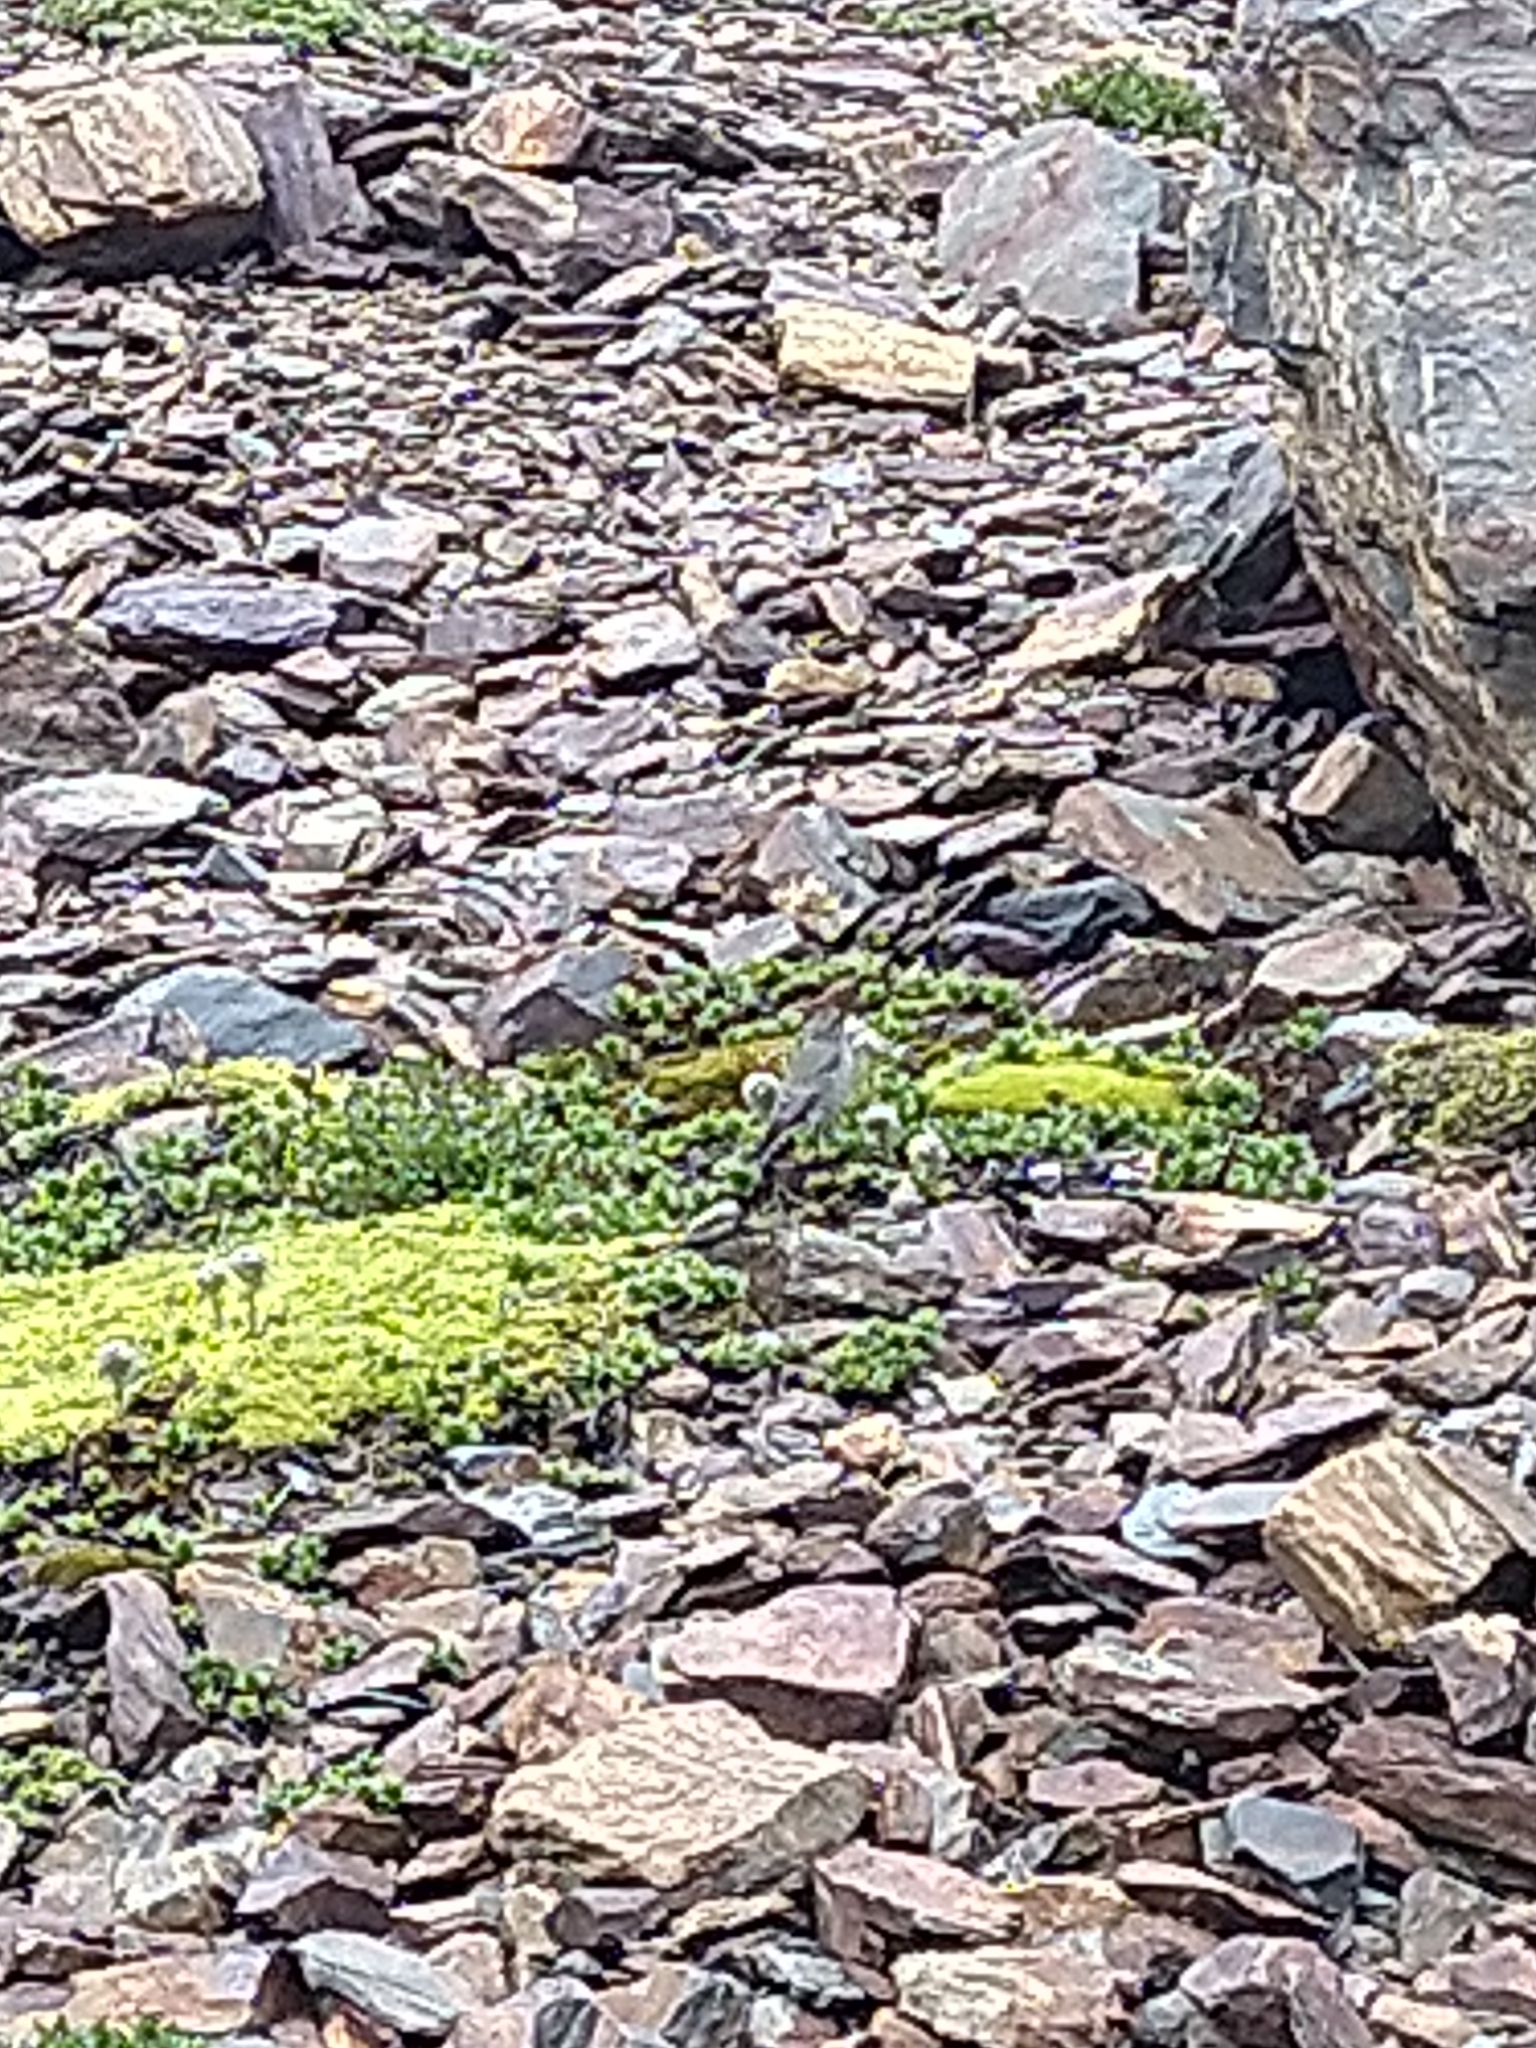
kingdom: Animalia
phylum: Chordata
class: Aves
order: Passeriformes
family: Tyrannidae
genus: Muscisaxicola
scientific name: Muscisaxicola maclovianus
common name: Dark-faced ground tyrant
